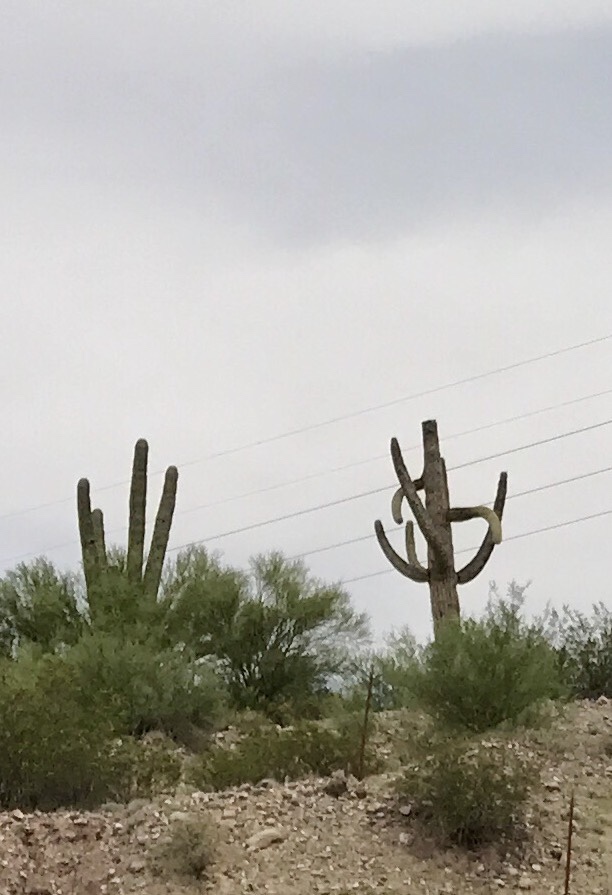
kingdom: Plantae
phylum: Tracheophyta
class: Magnoliopsida
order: Caryophyllales
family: Cactaceae
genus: Carnegiea
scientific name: Carnegiea gigantea
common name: Saguaro
